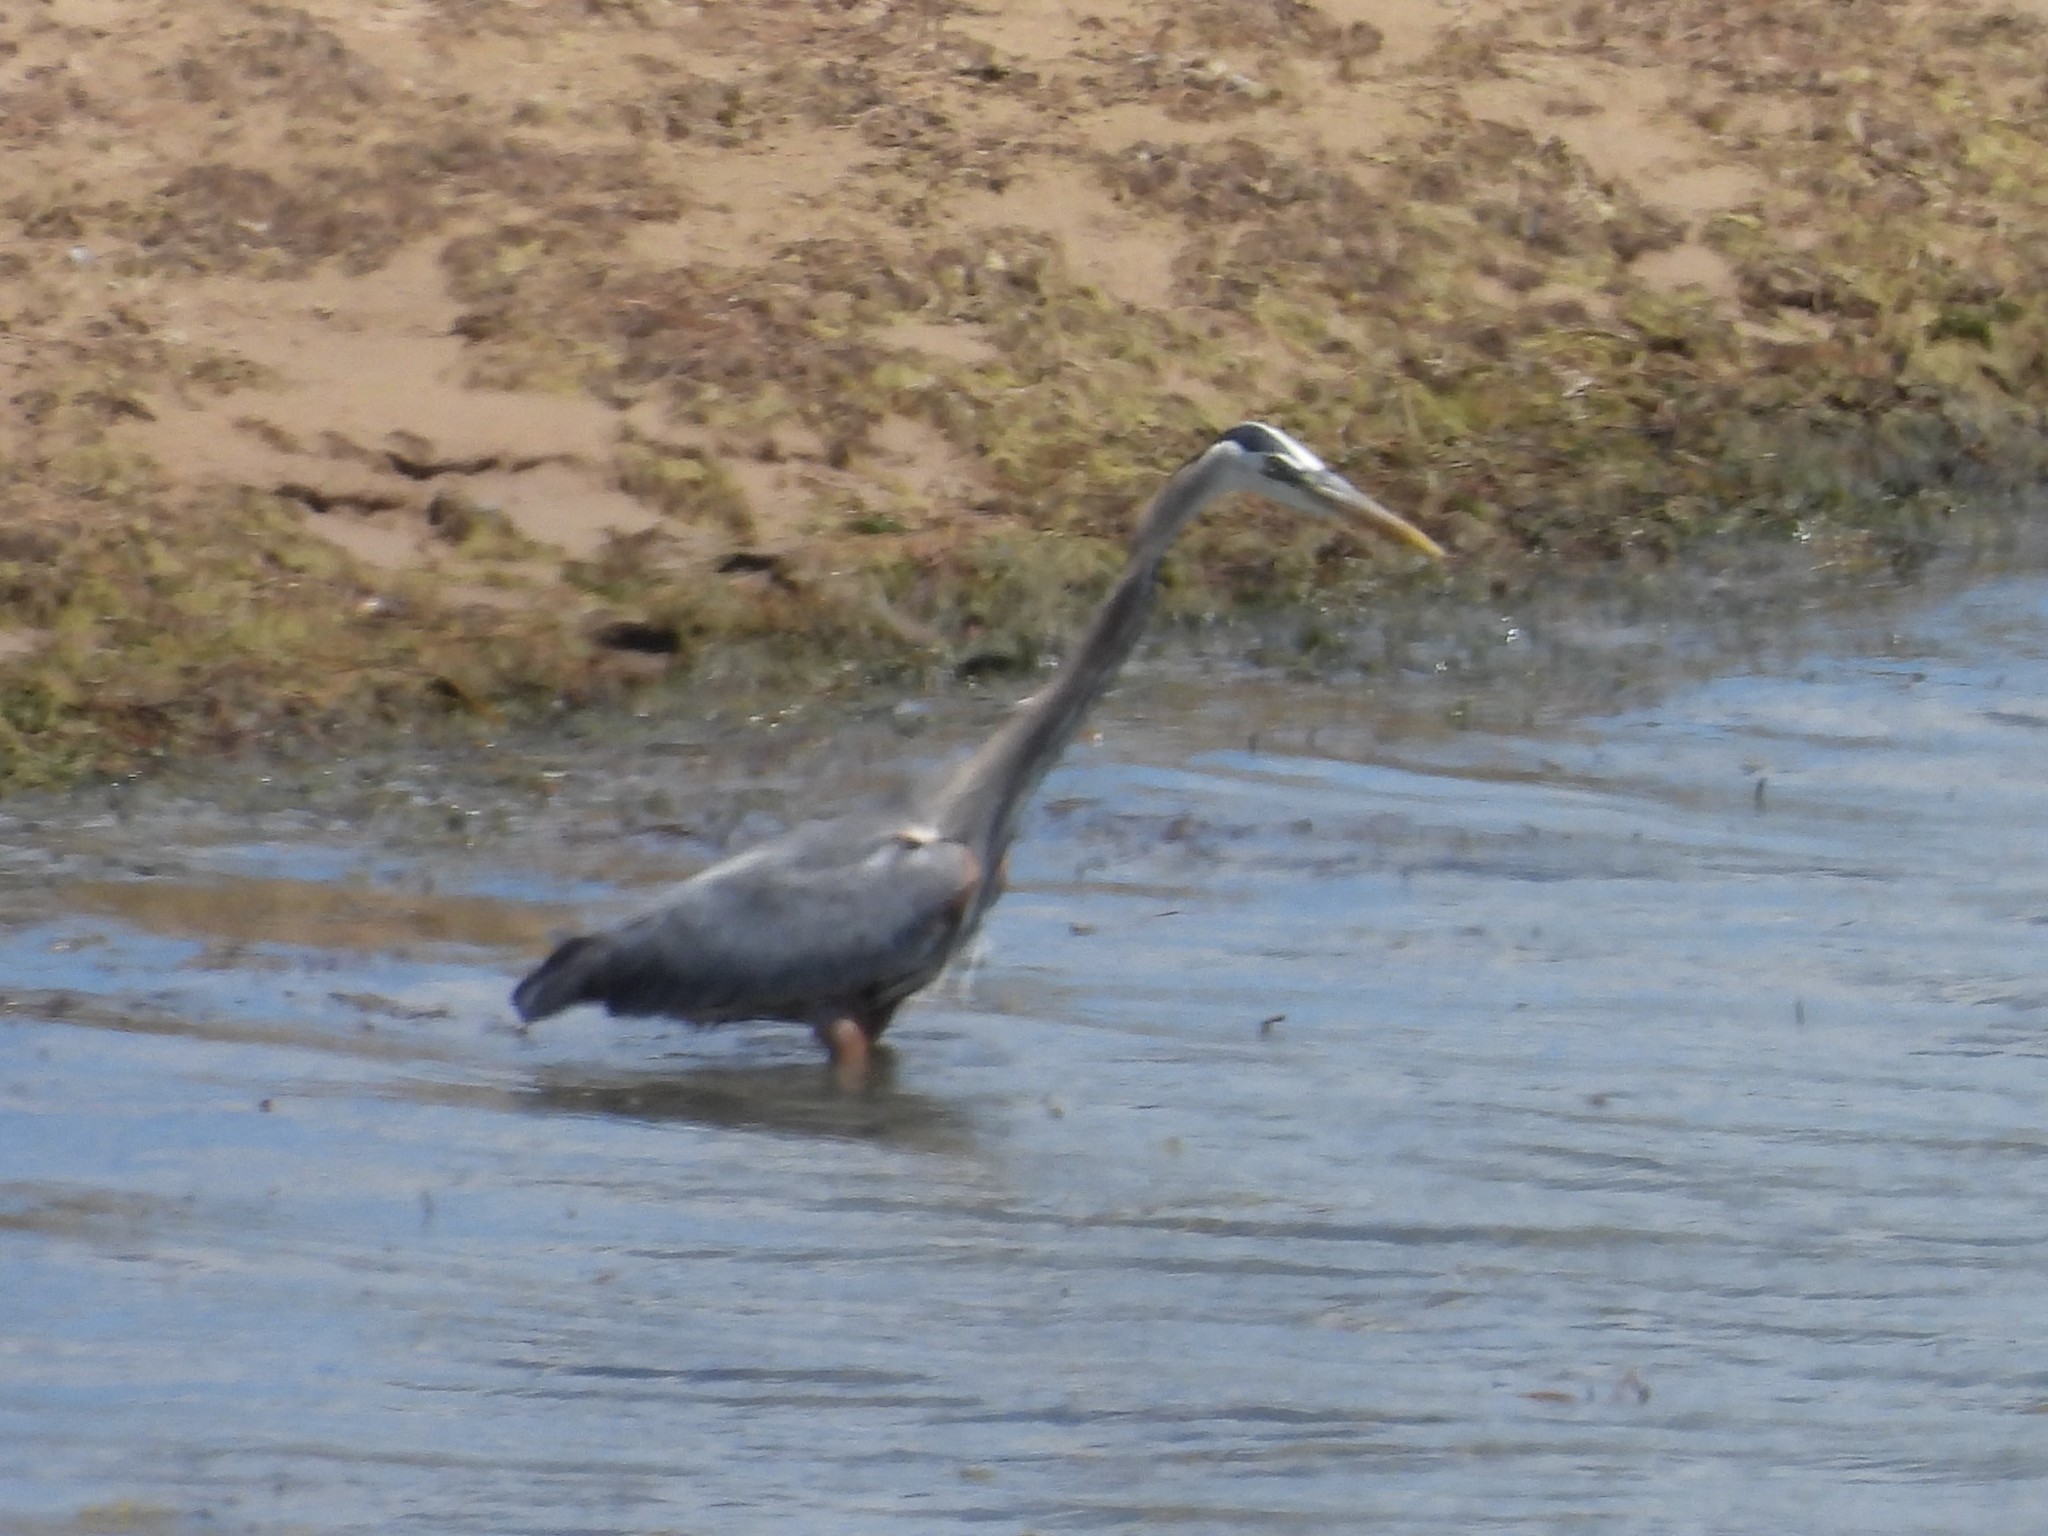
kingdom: Animalia
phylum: Chordata
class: Aves
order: Pelecaniformes
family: Ardeidae
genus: Ardea
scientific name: Ardea herodias
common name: Great blue heron
